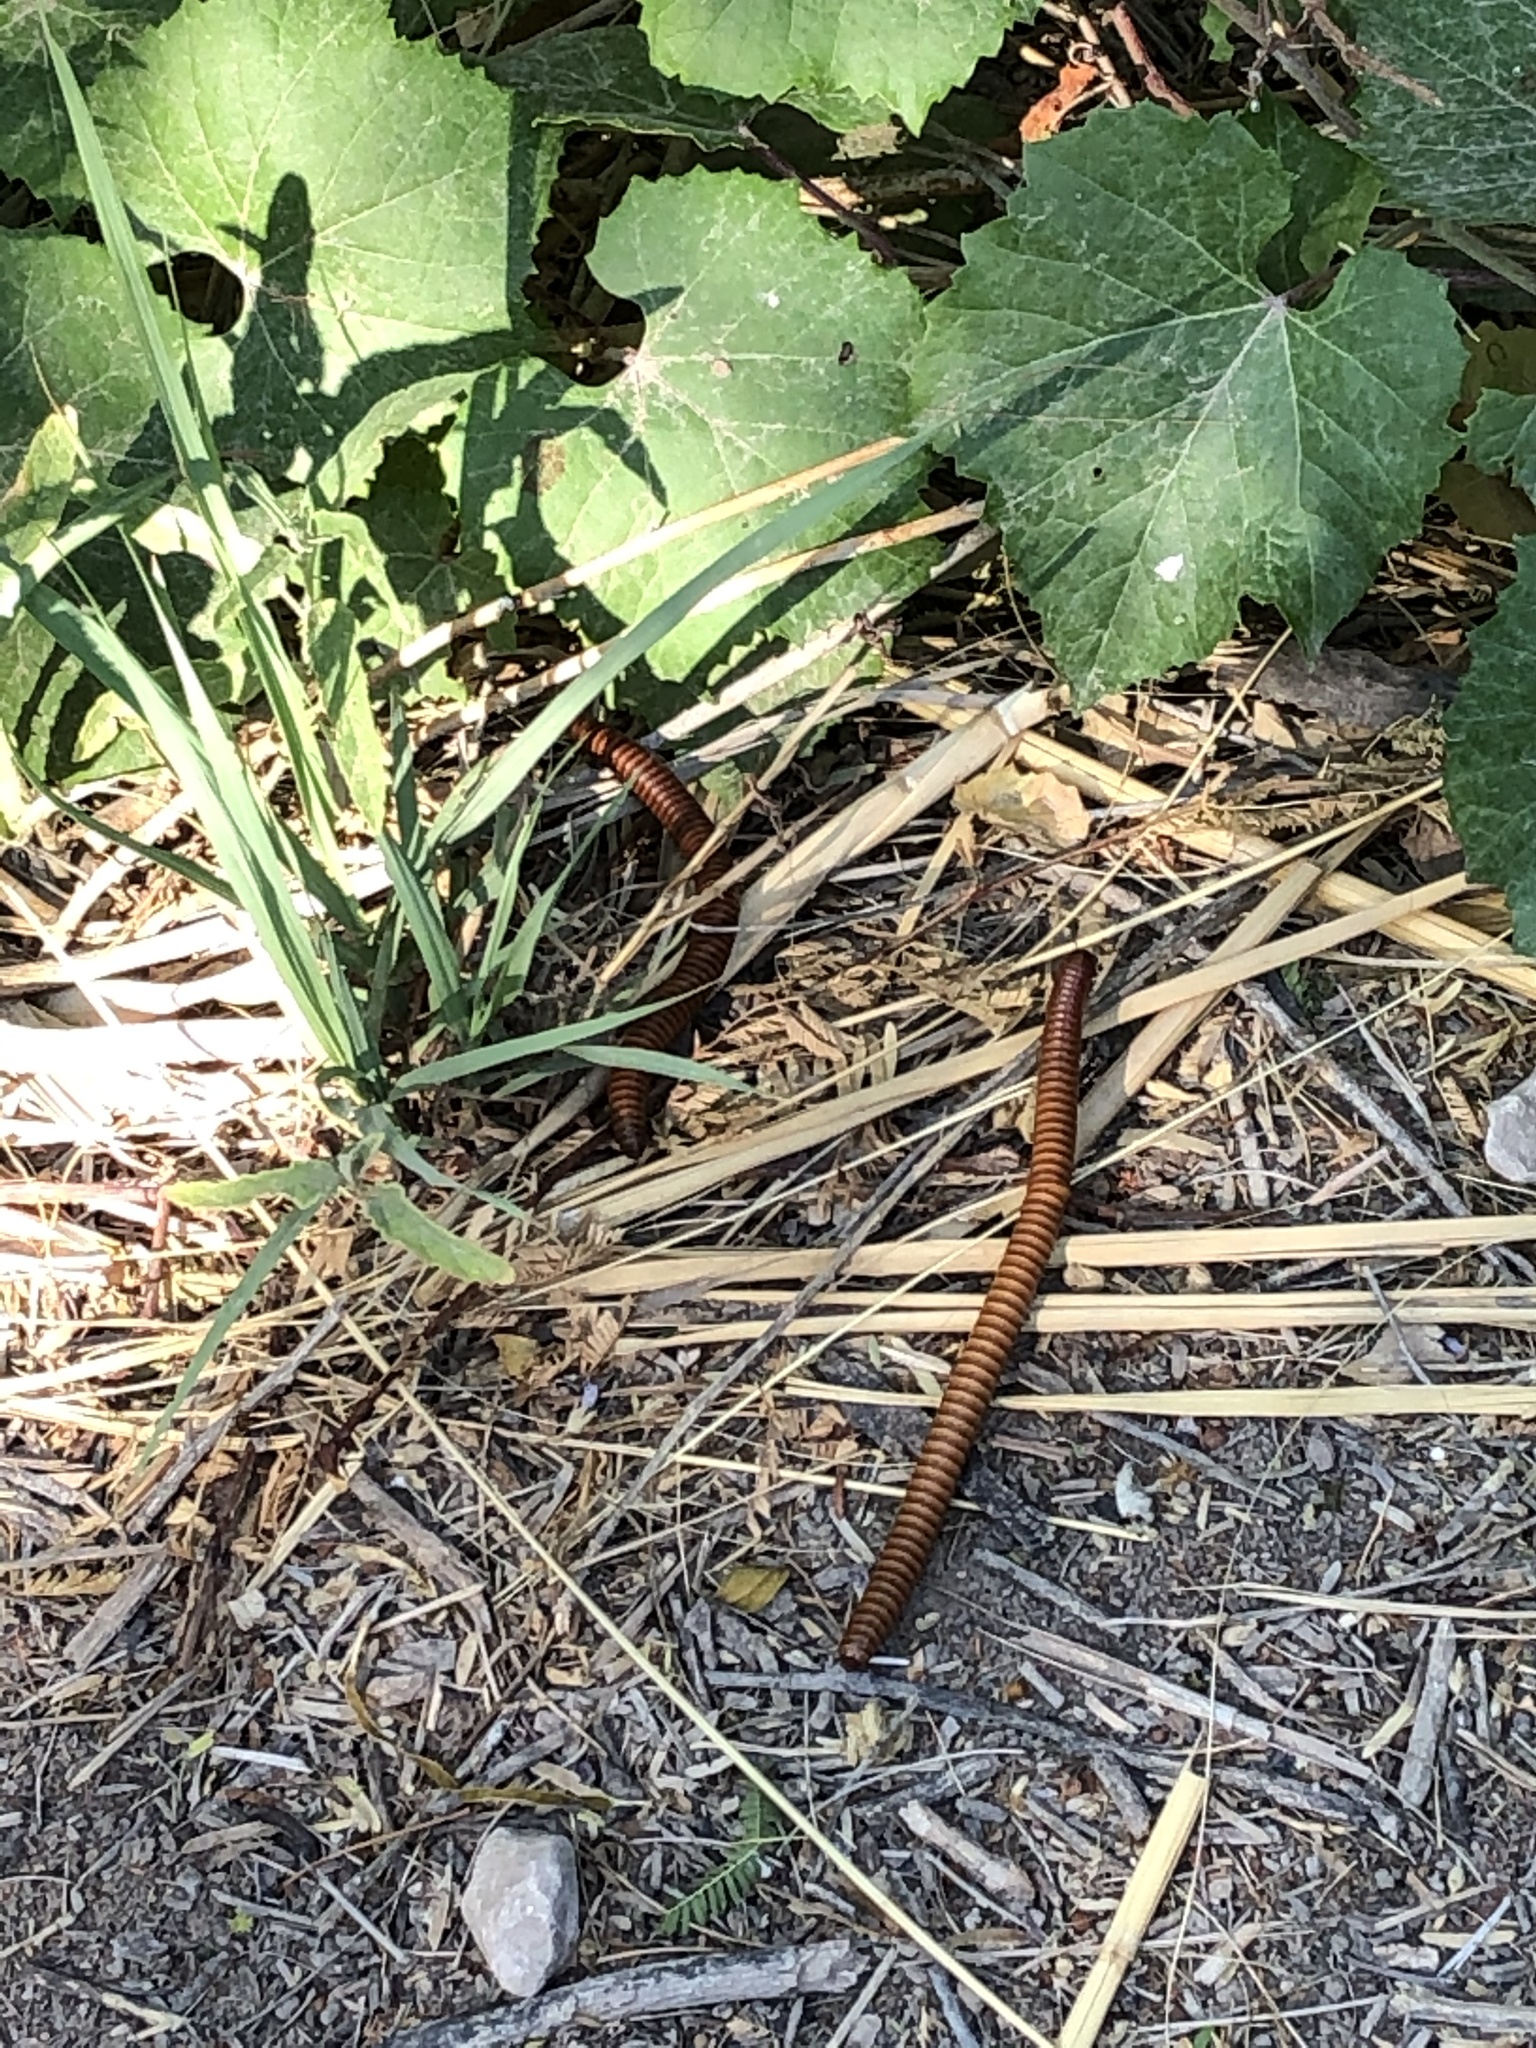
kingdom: Animalia
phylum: Arthropoda
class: Diplopoda
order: Spirostreptida
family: Spirostreptidae
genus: Orthoporus
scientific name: Orthoporus ornatus
